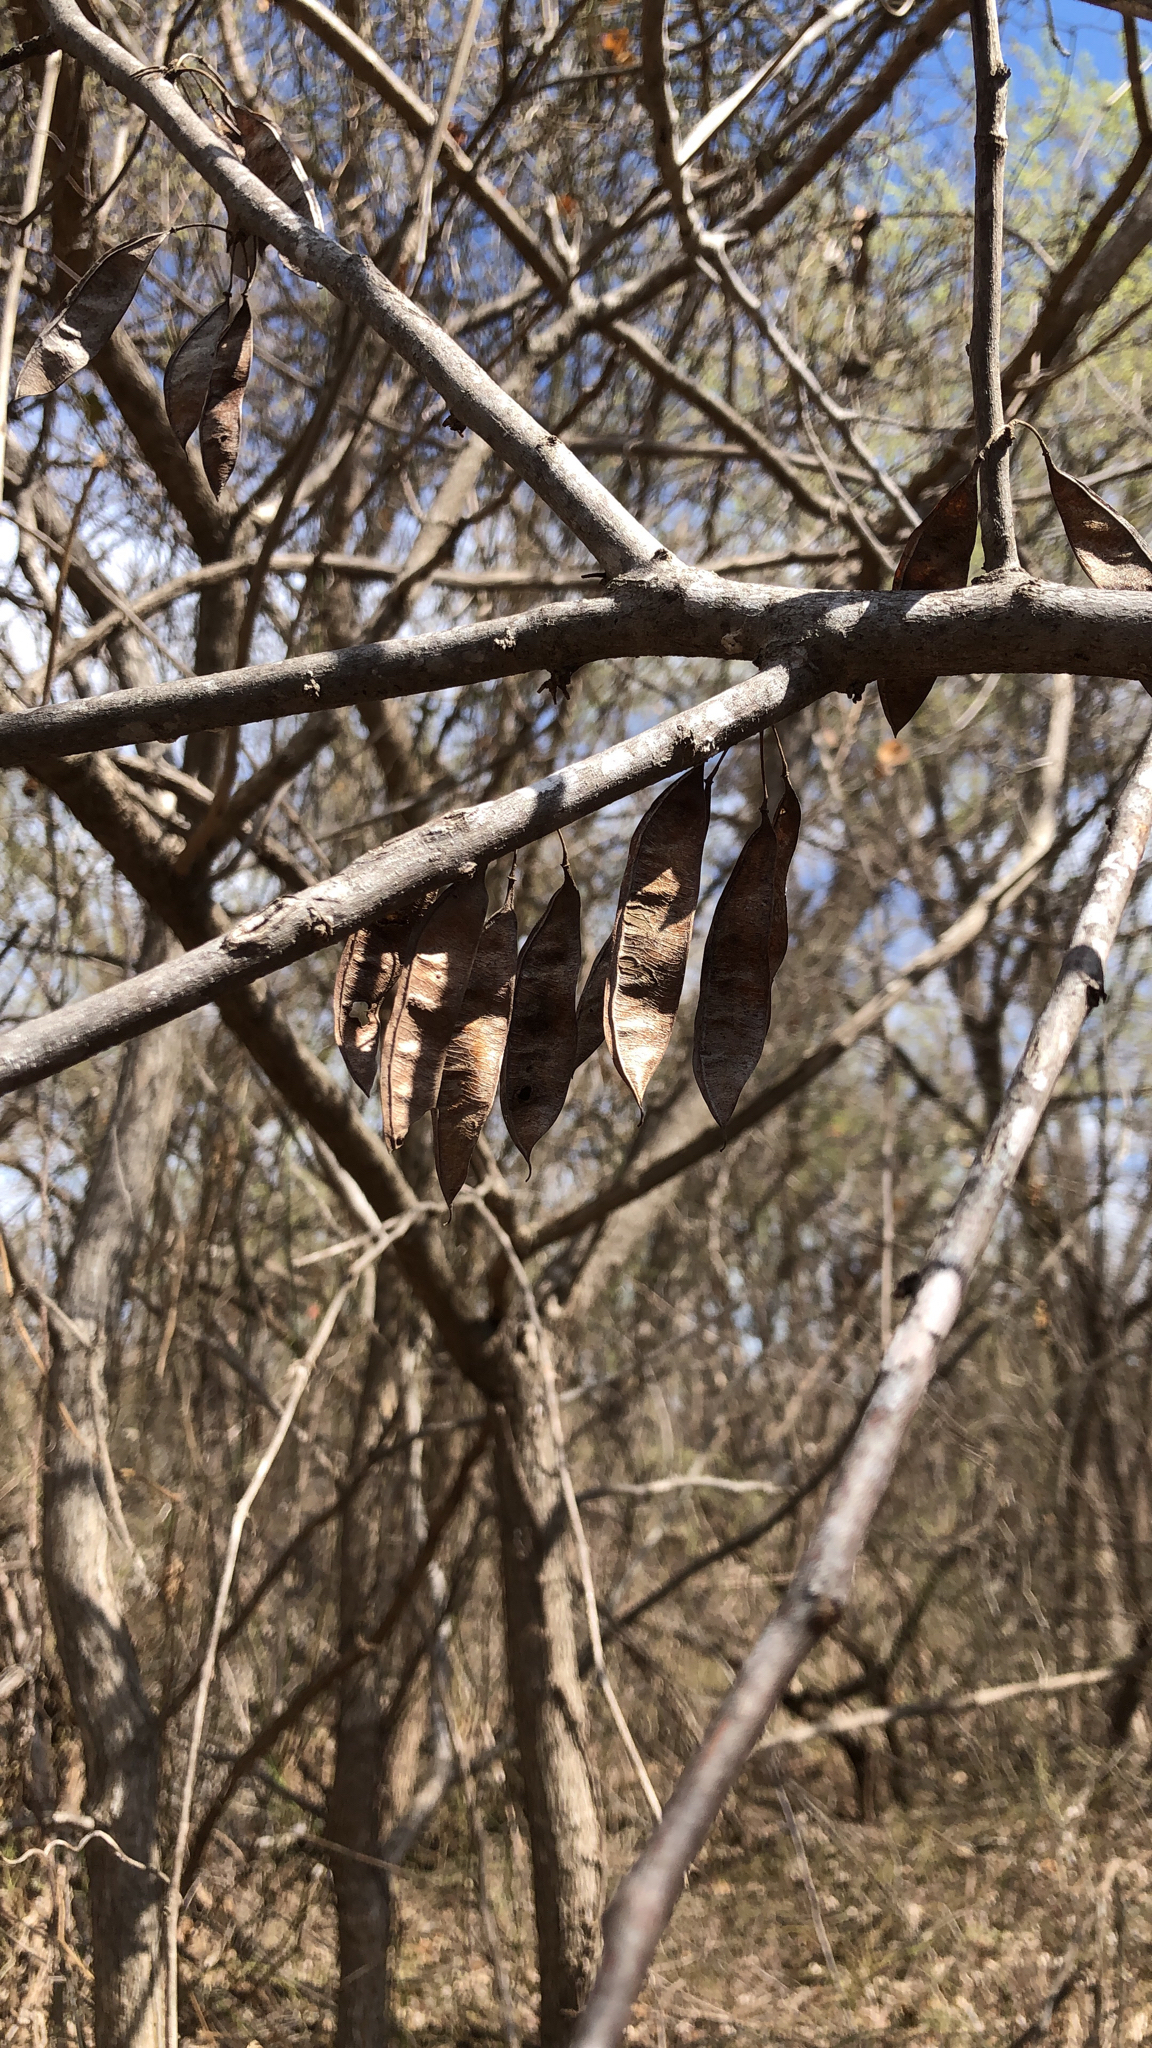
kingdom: Plantae
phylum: Tracheophyta
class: Magnoliopsida
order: Fabales
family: Fabaceae
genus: Cercis
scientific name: Cercis canadensis
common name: Eastern redbud
